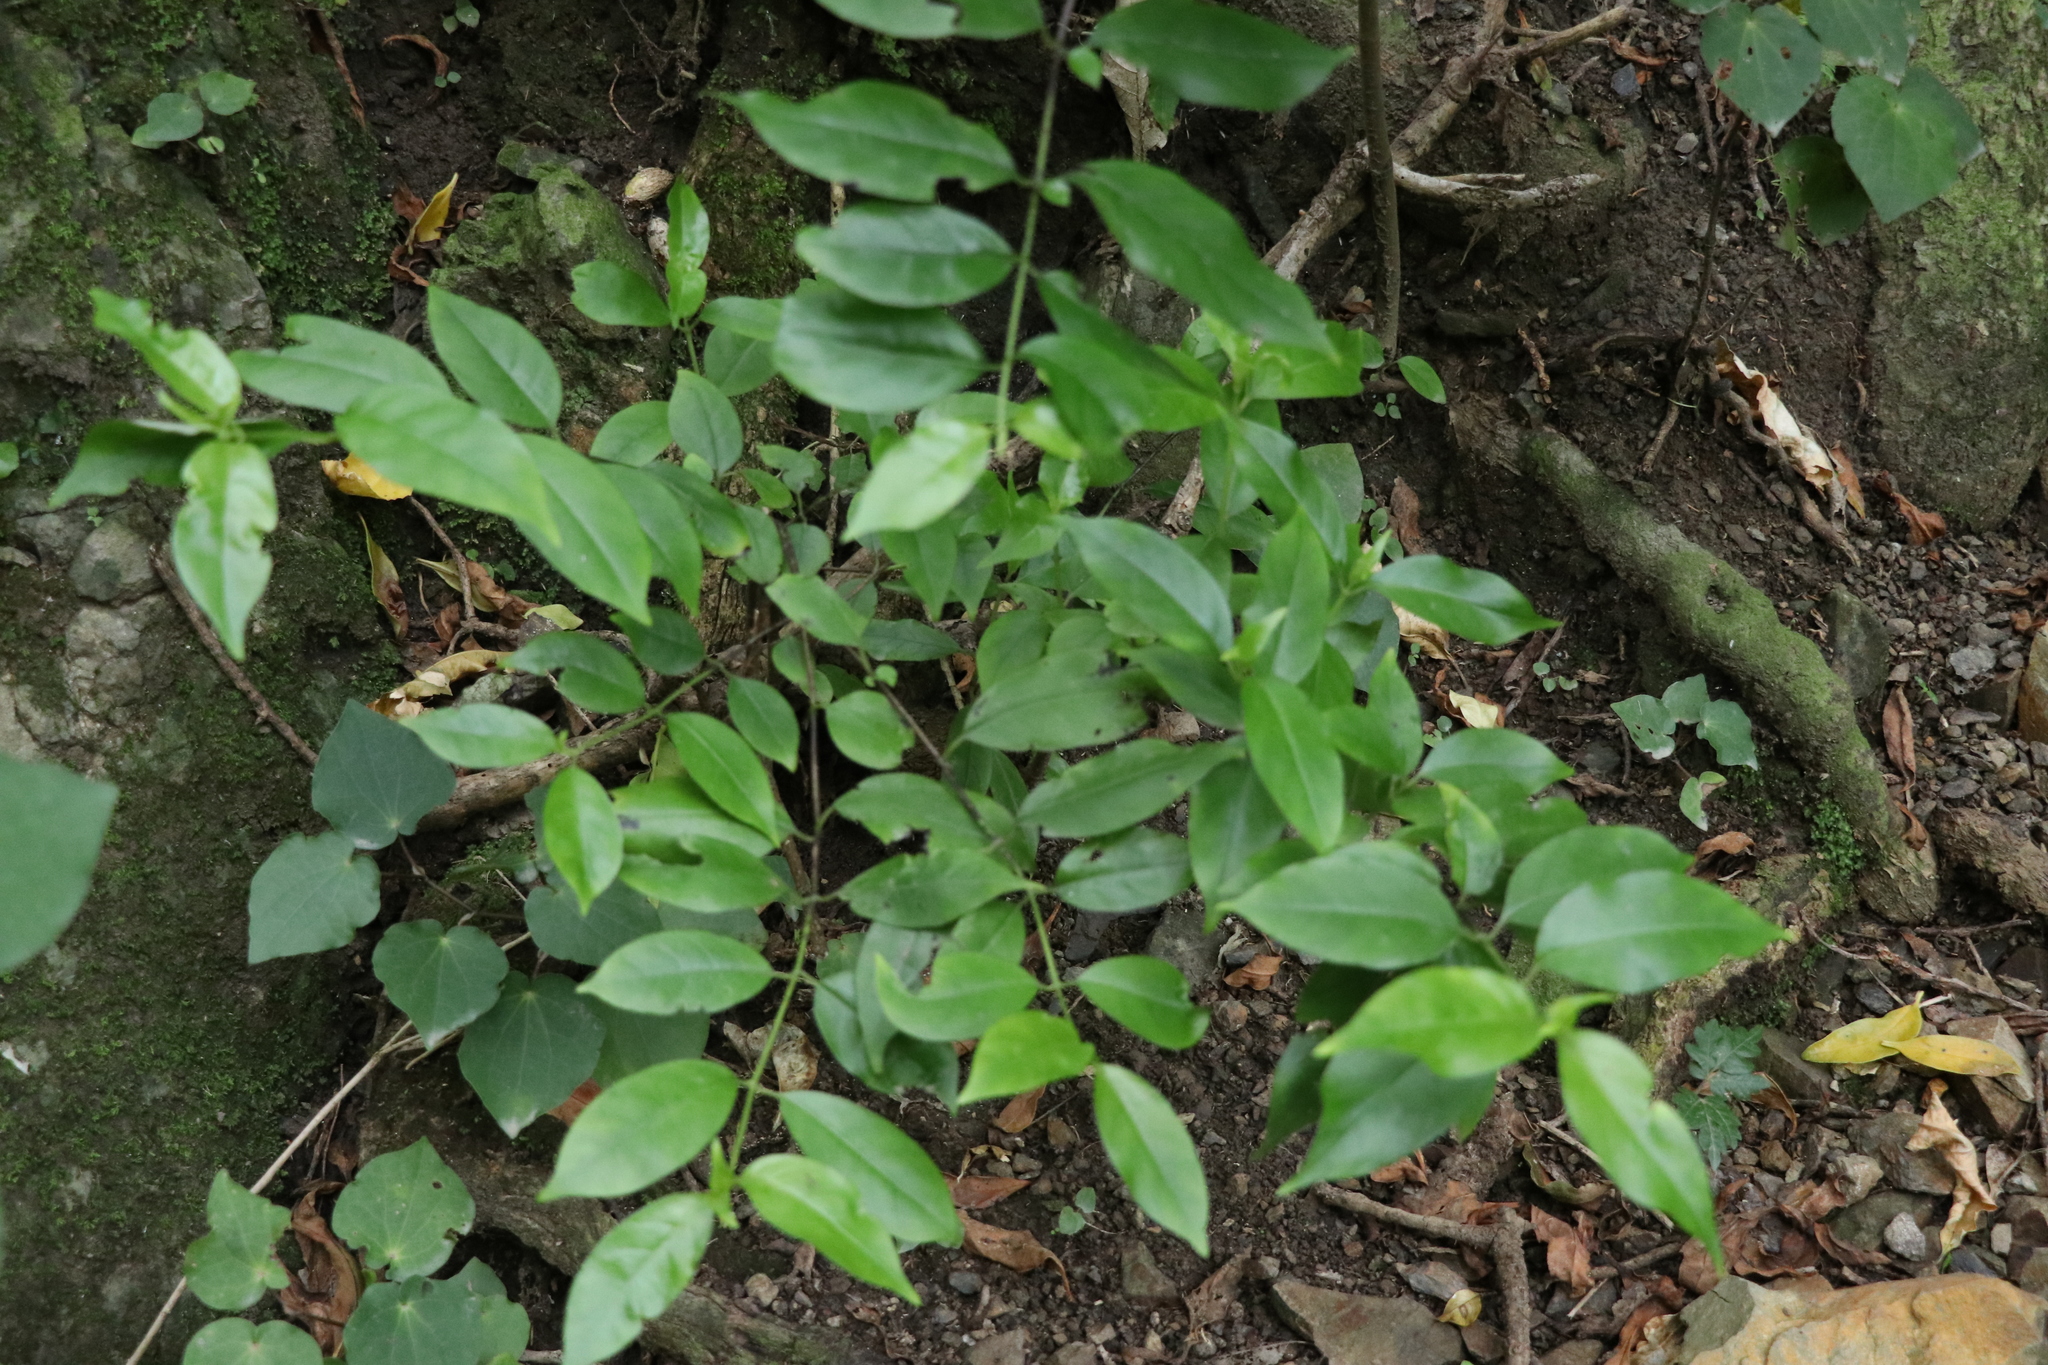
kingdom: Plantae
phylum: Tracheophyta
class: Magnoliopsida
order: Gentianales
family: Loganiaceae
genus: Geniostoma
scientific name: Geniostoma ligustrifolium
